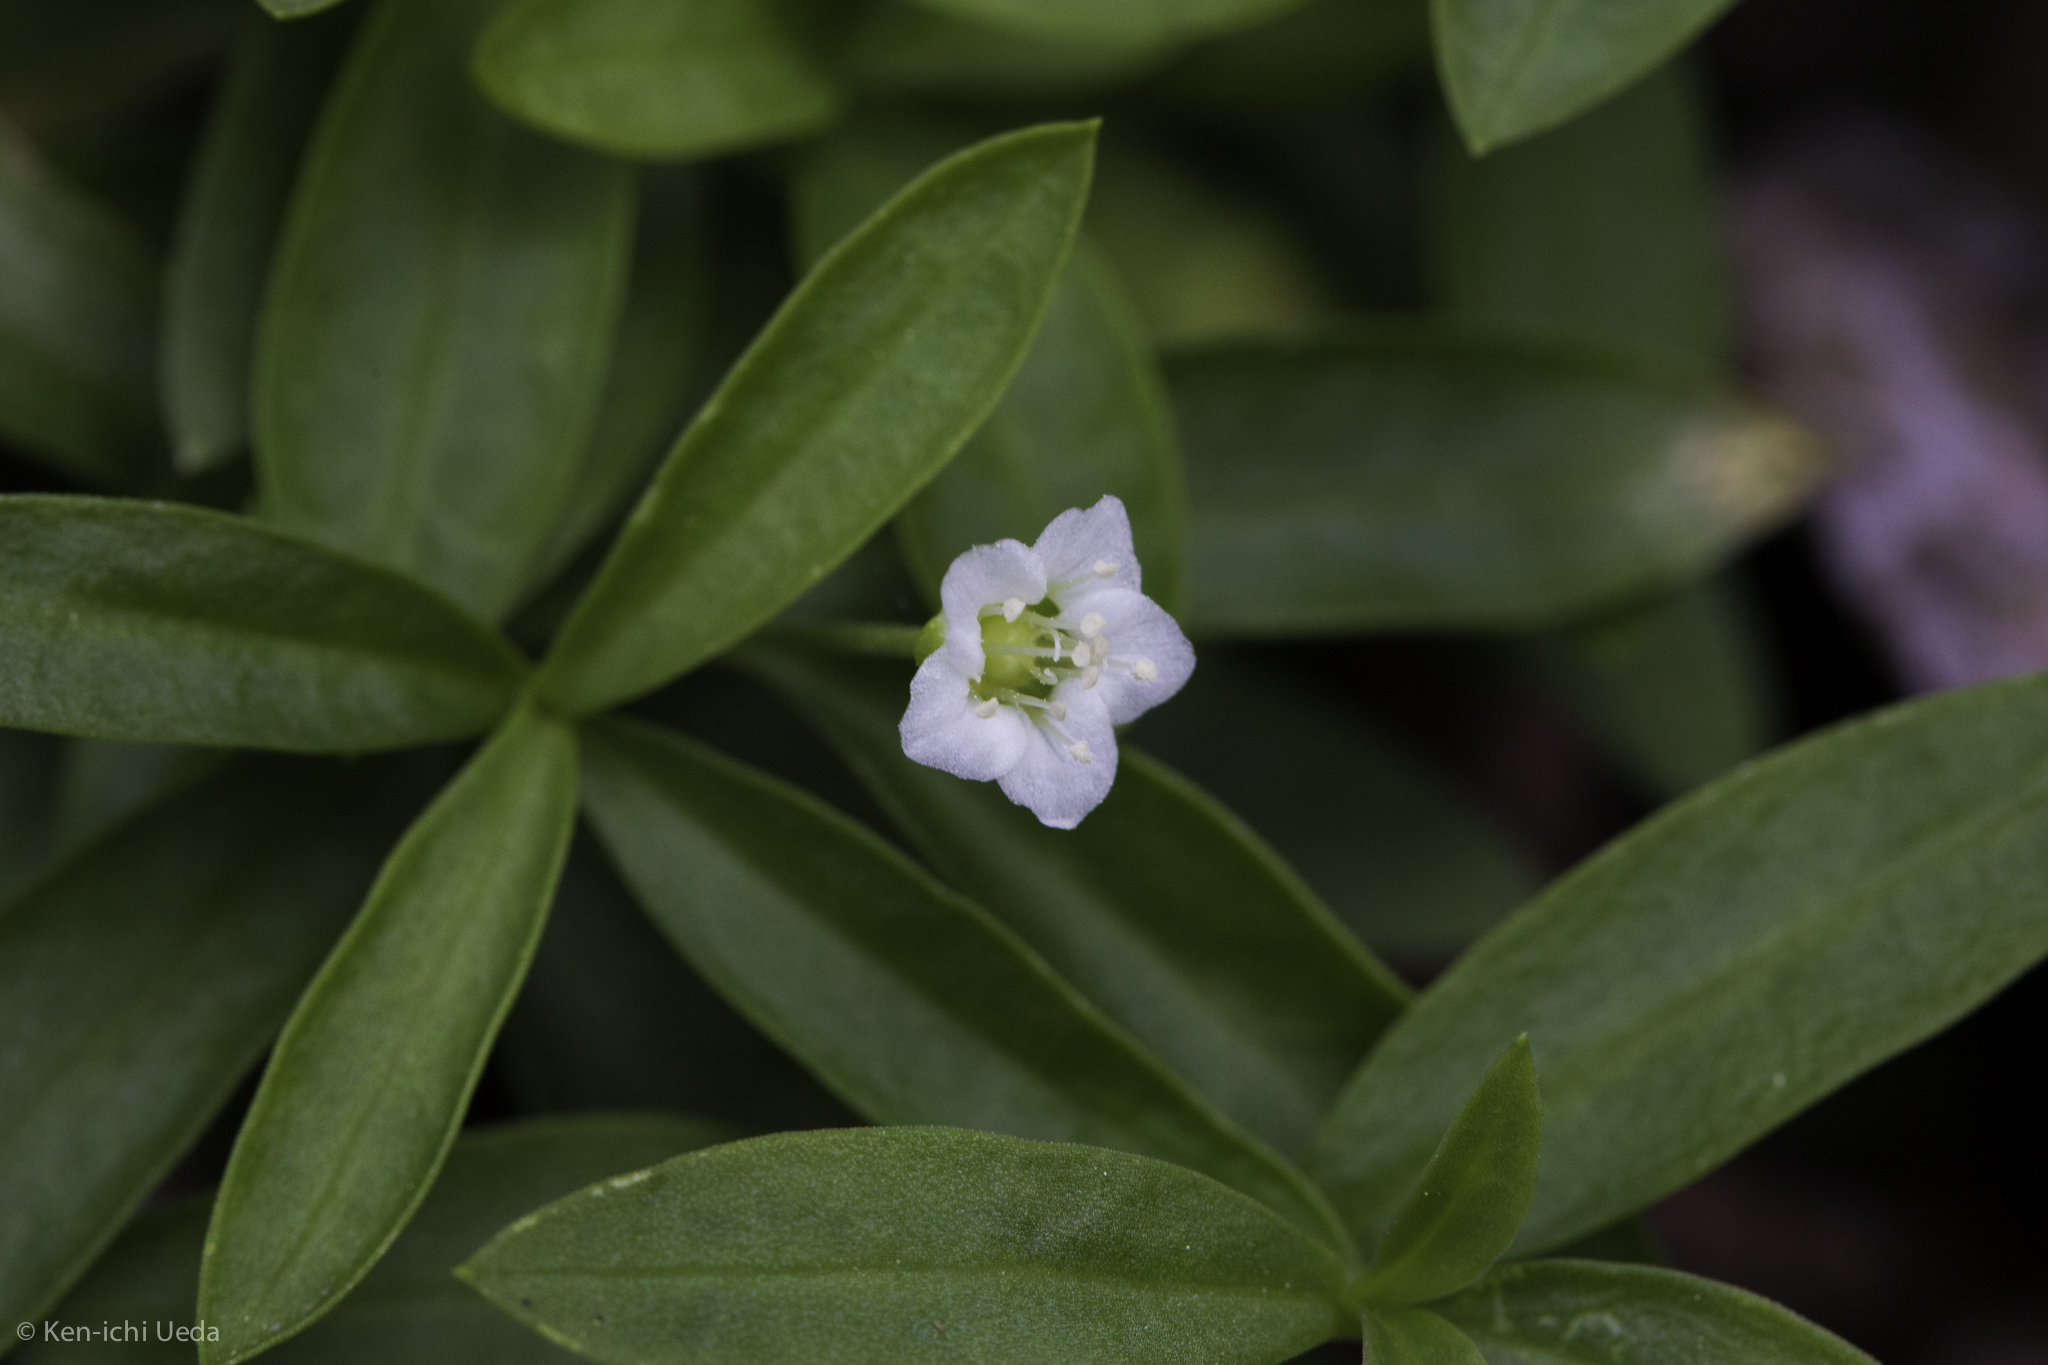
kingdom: Plantae
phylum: Tracheophyta
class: Magnoliopsida
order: Caryophyllales
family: Caryophyllaceae
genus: Moehringia
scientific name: Moehringia macrophylla
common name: Big-leaf sandwort
